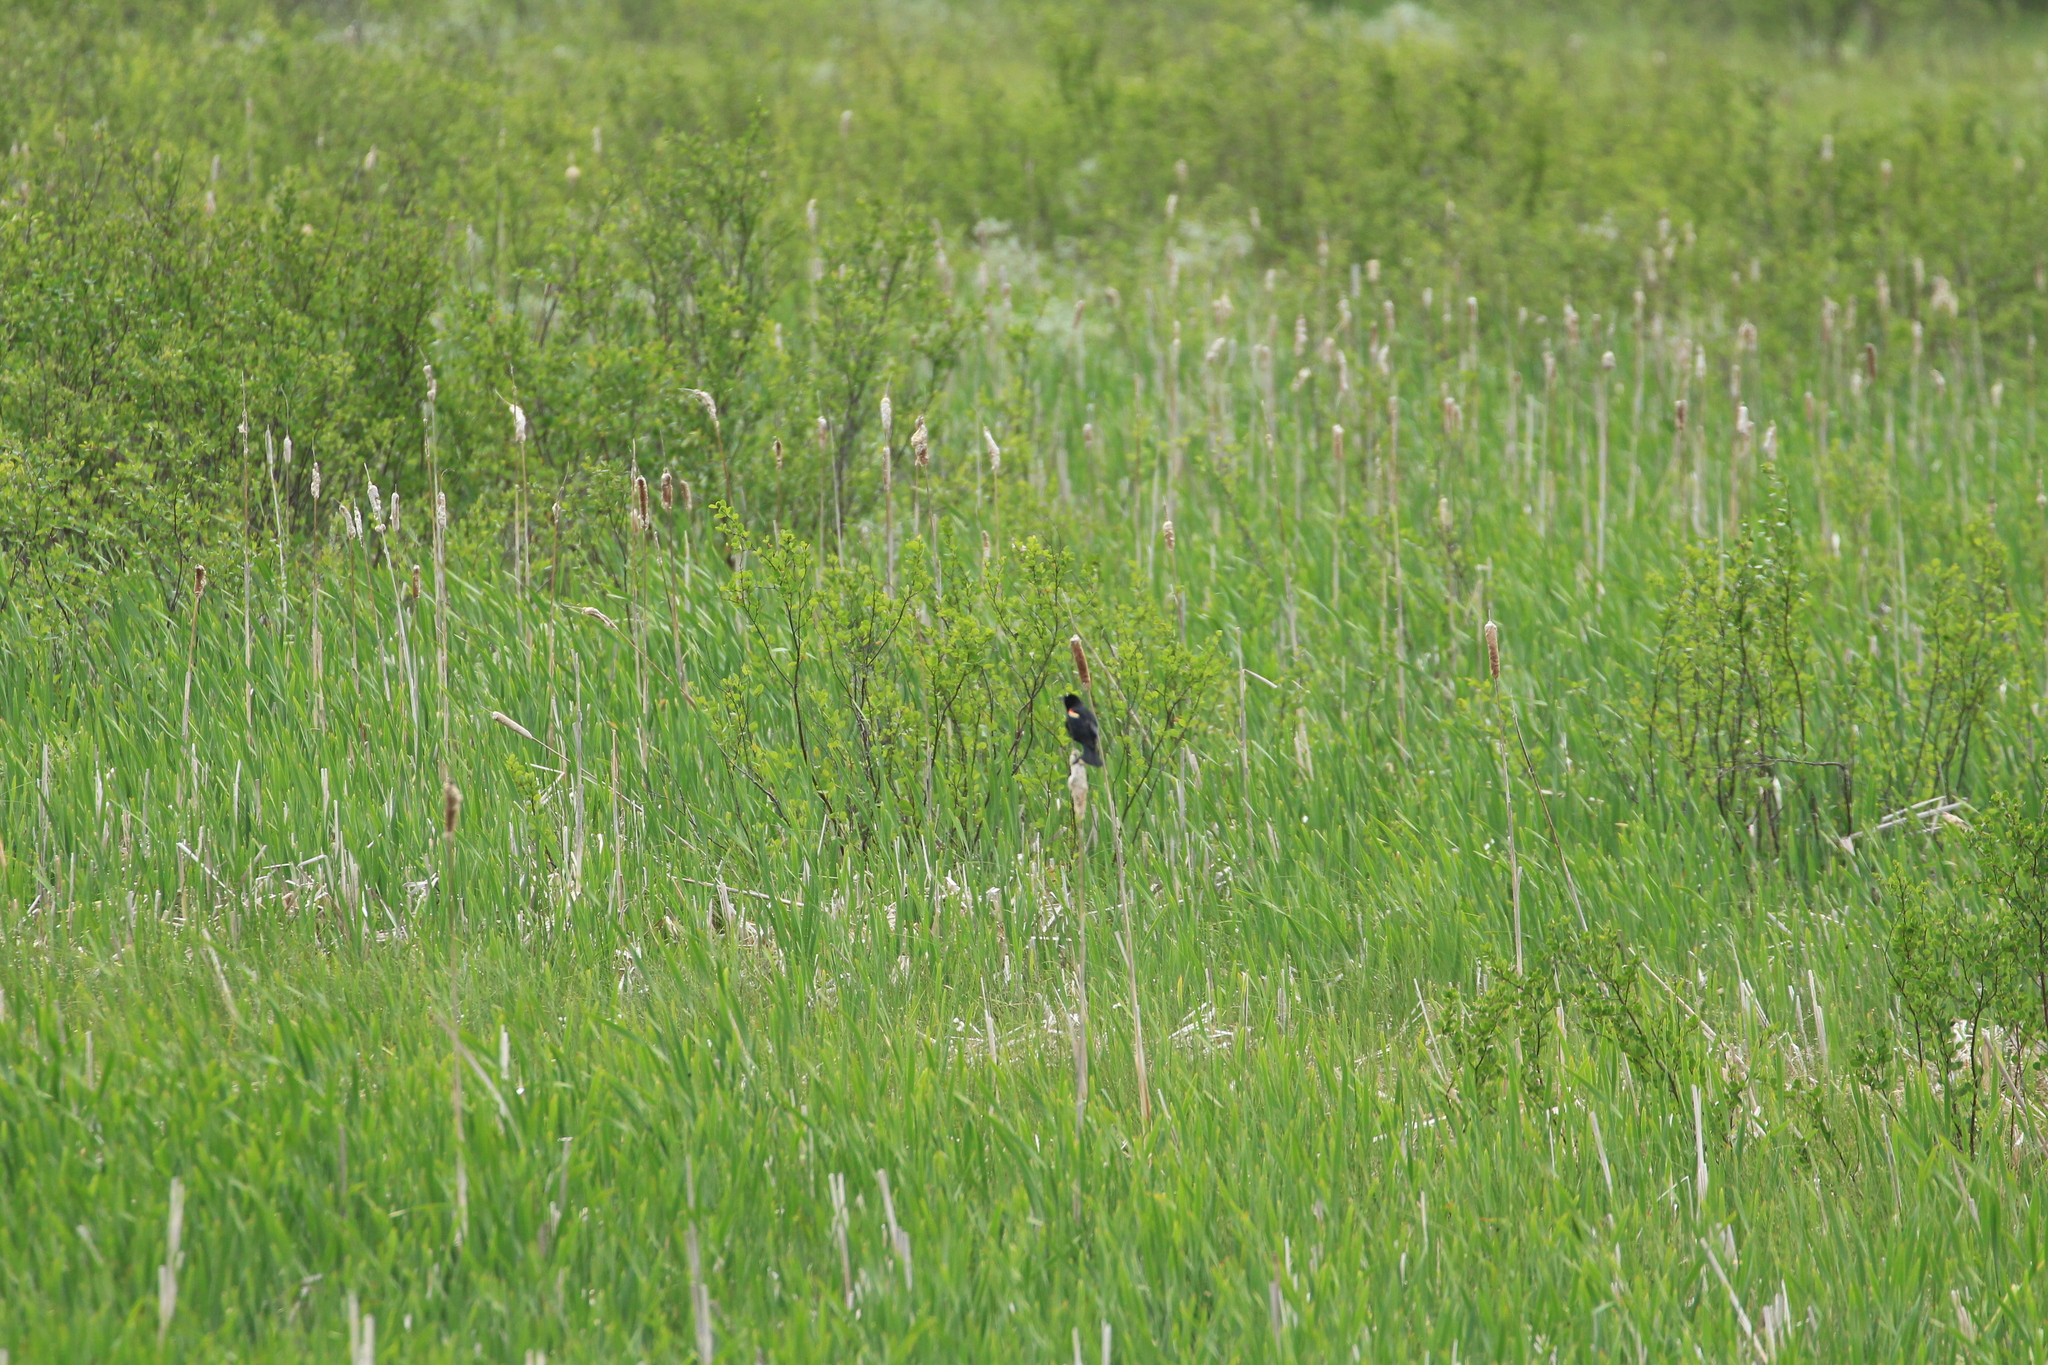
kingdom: Animalia
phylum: Chordata
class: Aves
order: Passeriformes
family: Icteridae
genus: Agelaius
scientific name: Agelaius phoeniceus
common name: Red-winged blackbird
